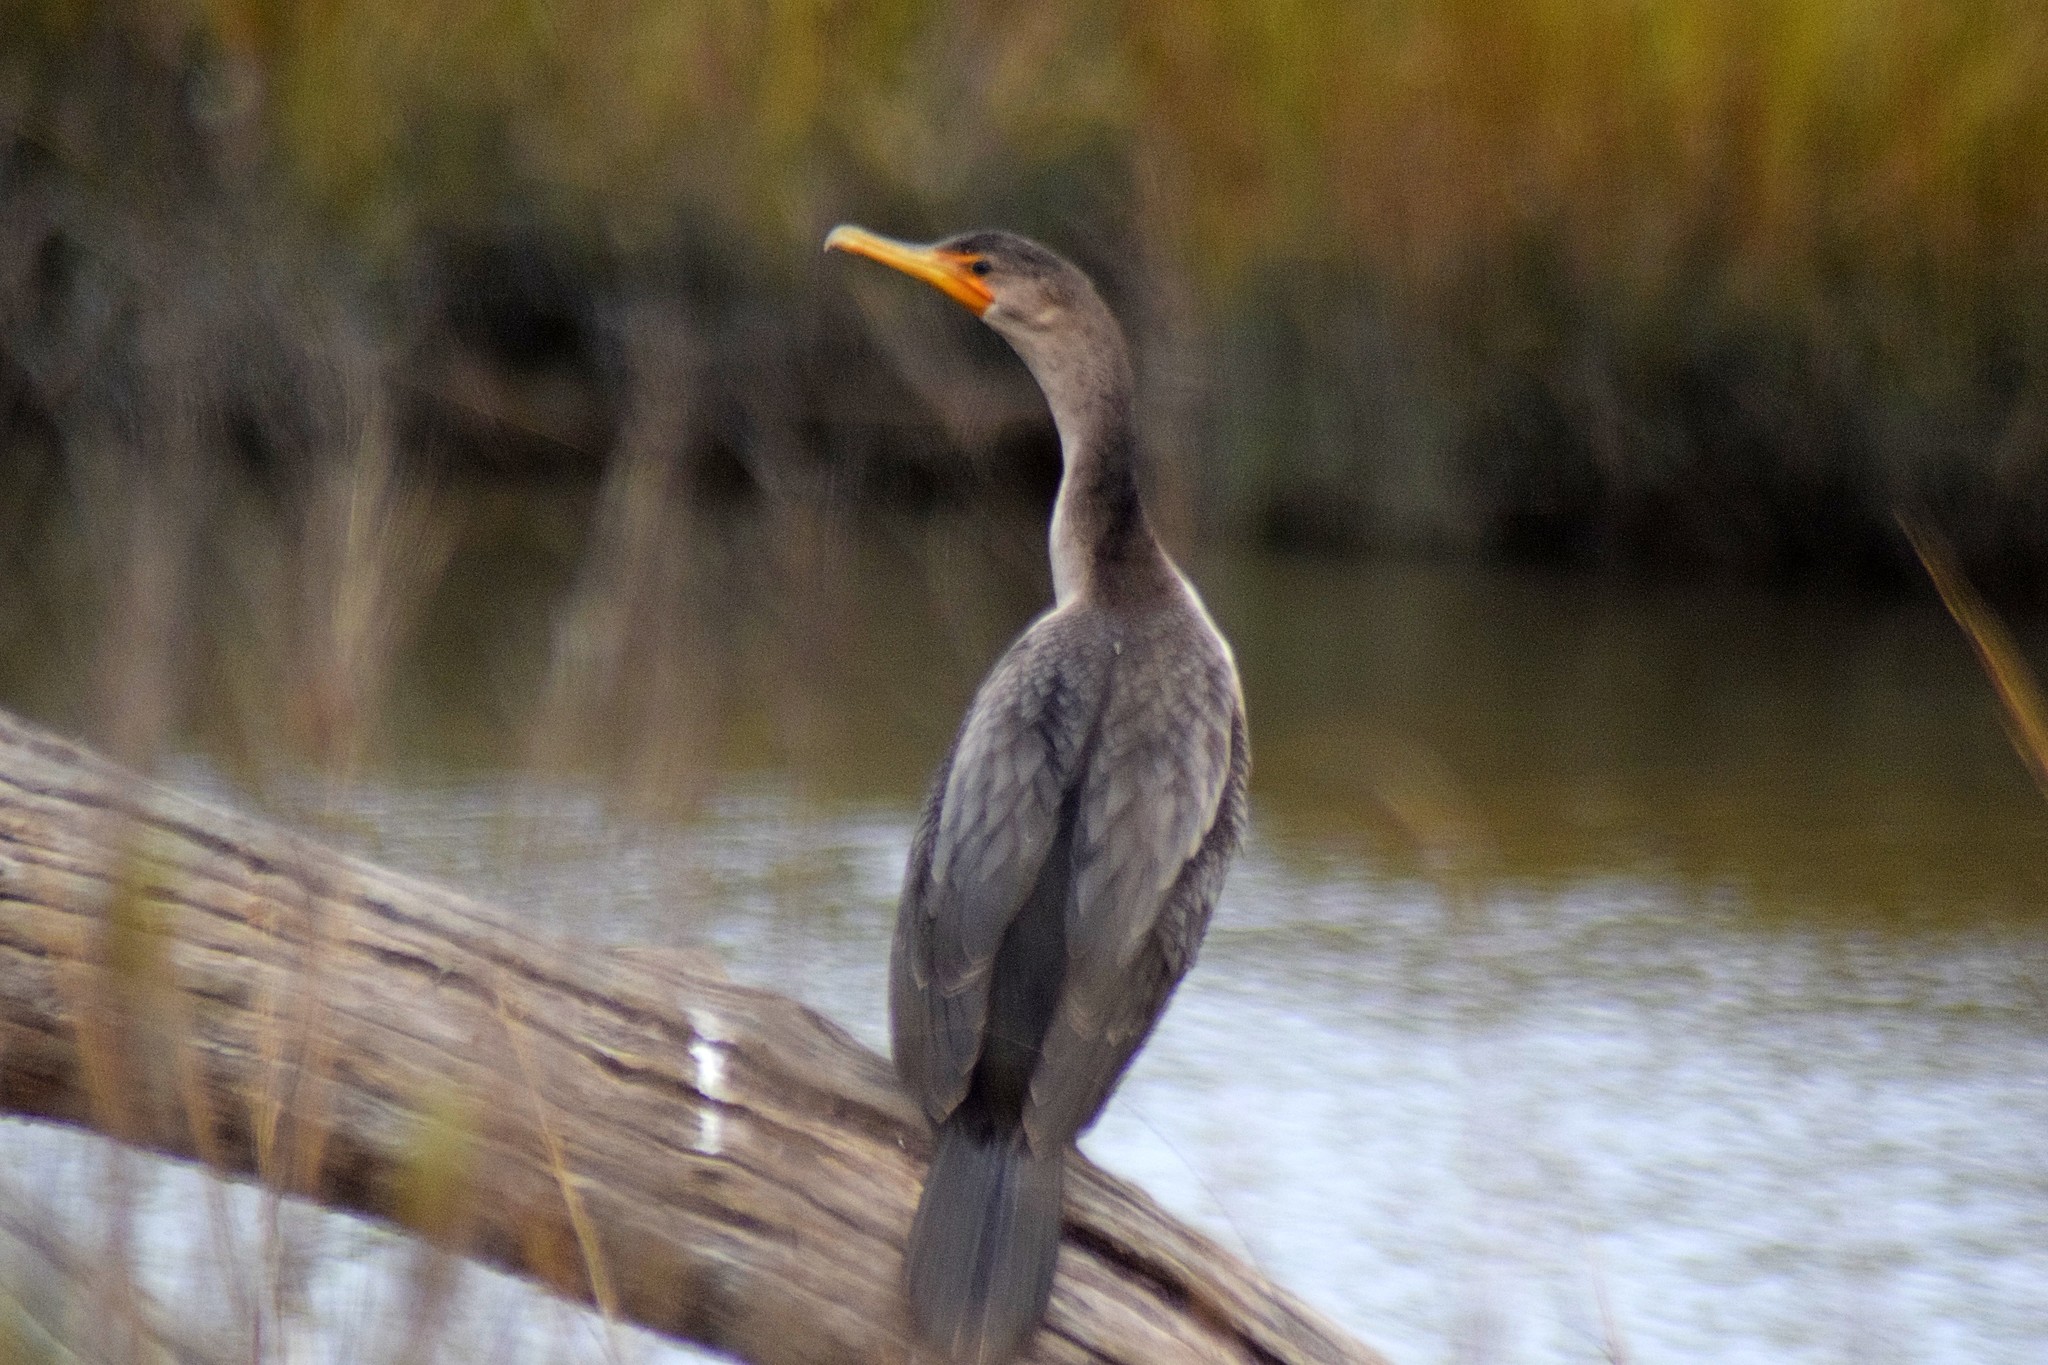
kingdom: Animalia
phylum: Chordata
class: Aves
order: Suliformes
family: Phalacrocoracidae
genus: Phalacrocorax
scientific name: Phalacrocorax auritus
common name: Double-crested cormorant
